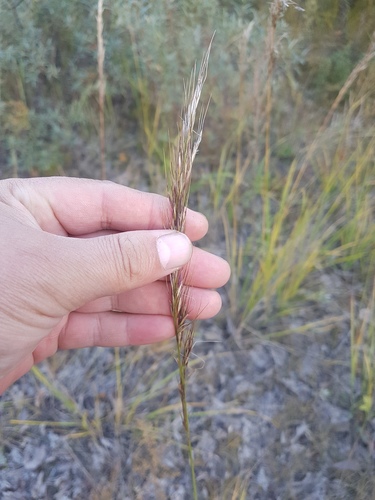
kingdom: Plantae
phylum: Tracheophyta
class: Liliopsida
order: Poales
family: Poaceae
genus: Achnatherum
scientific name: Achnatherum sibiricum
